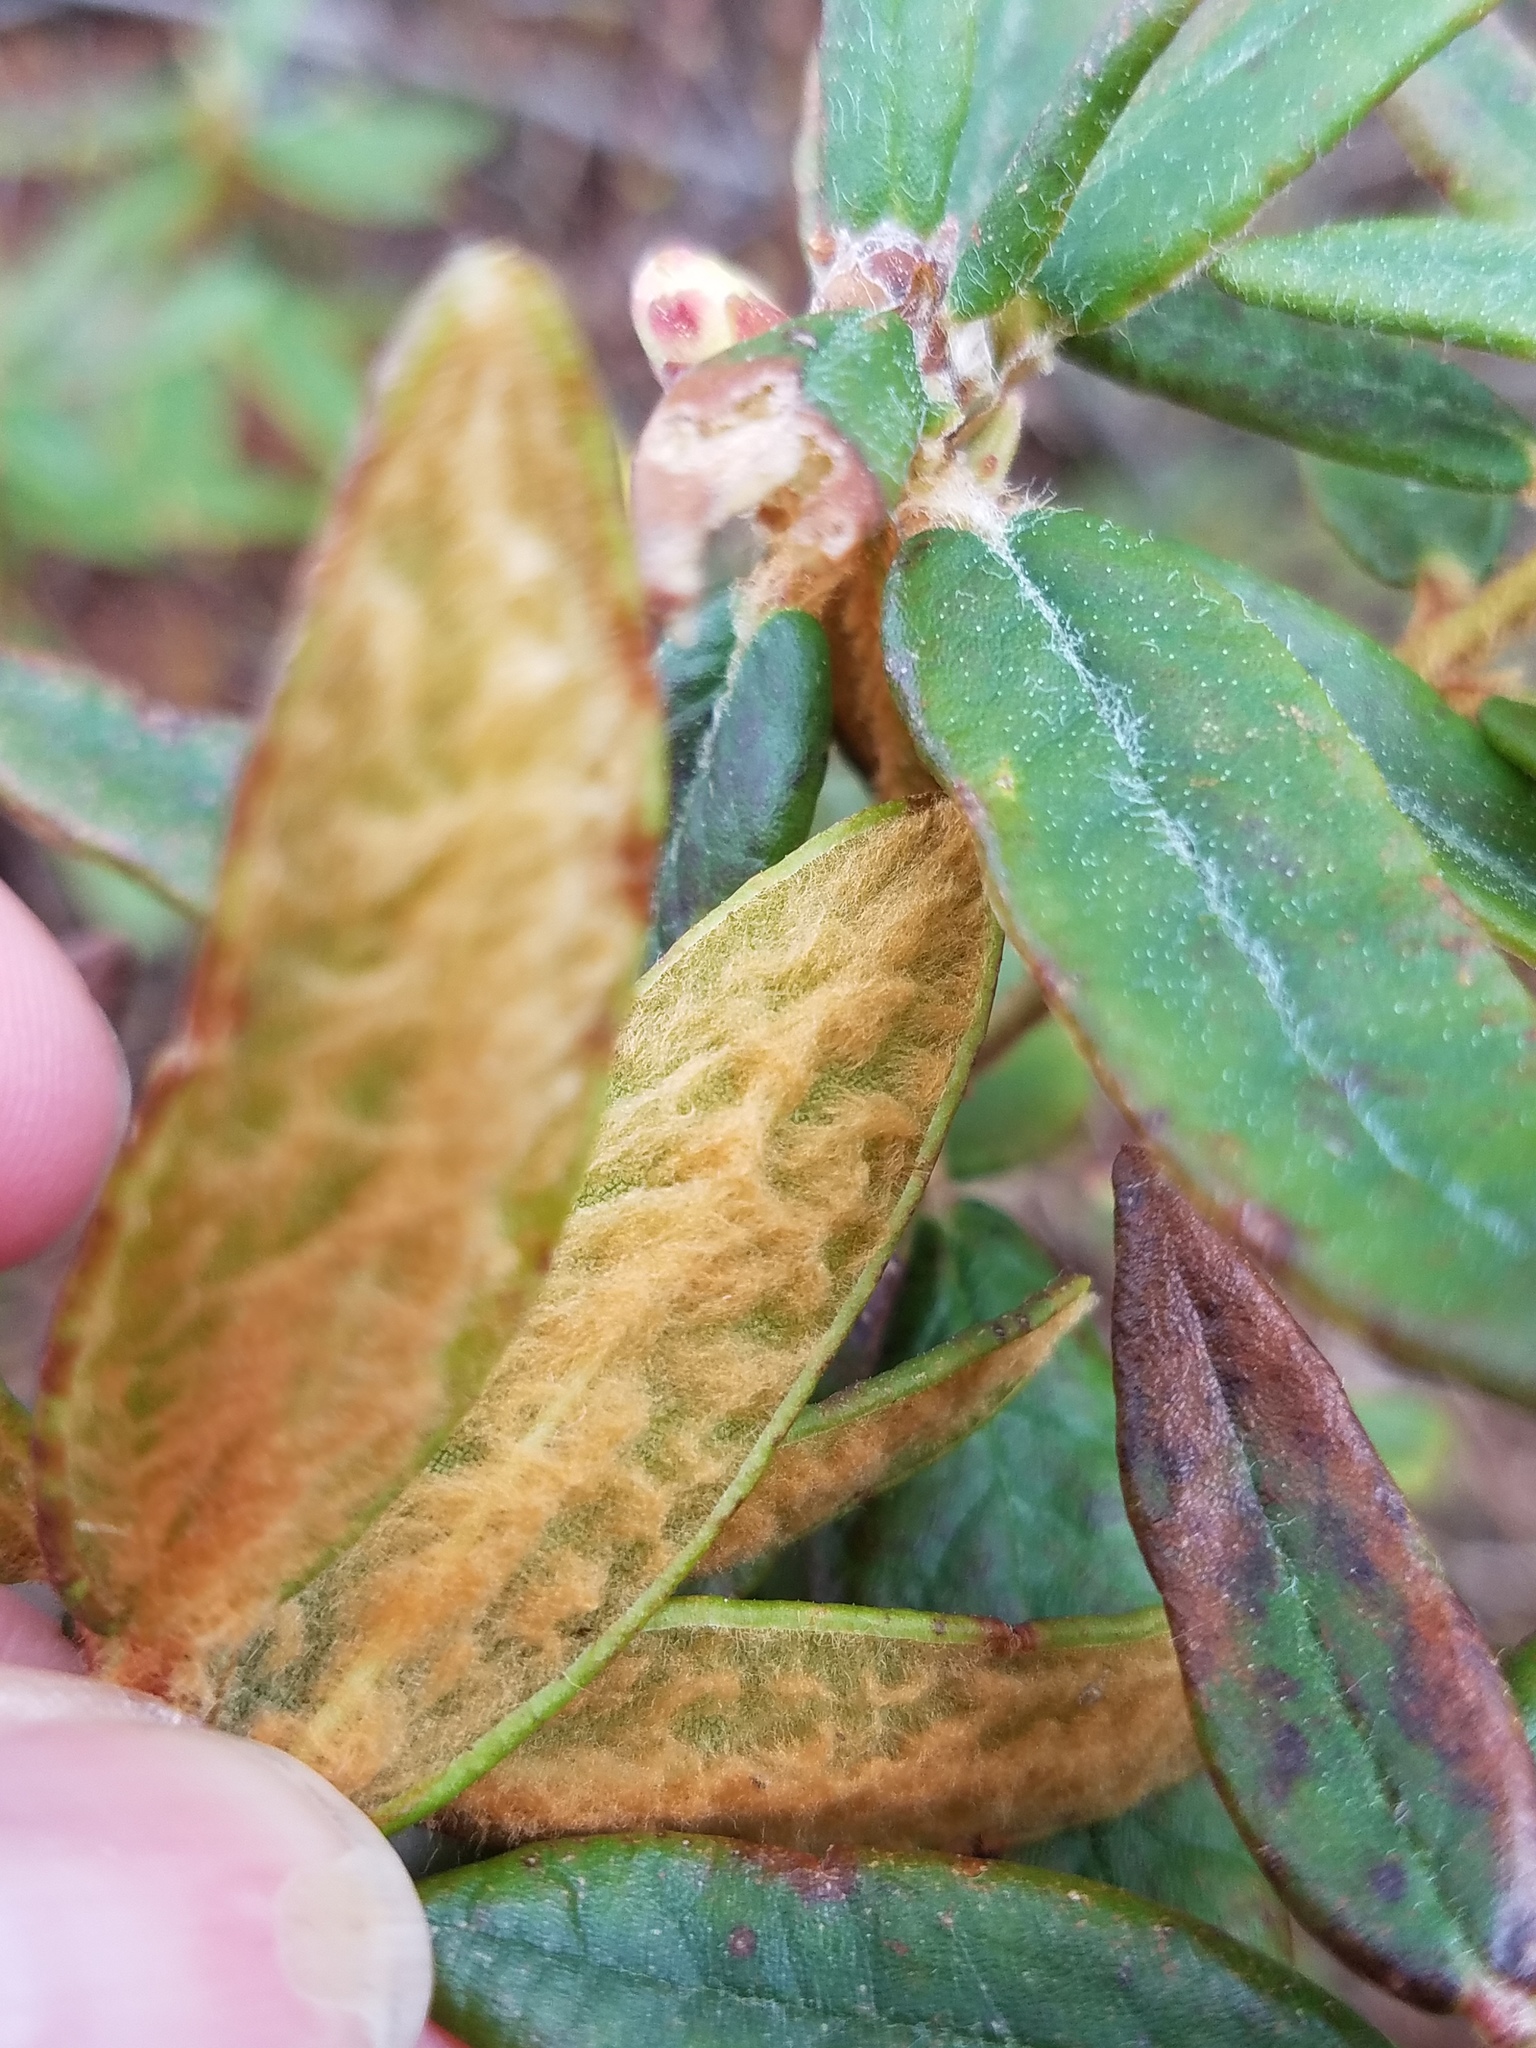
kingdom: Plantae
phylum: Tracheophyta
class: Magnoliopsida
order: Ericales
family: Ericaceae
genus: Rhododendron
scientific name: Rhododendron groenlandicum
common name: Bog labrador tea
